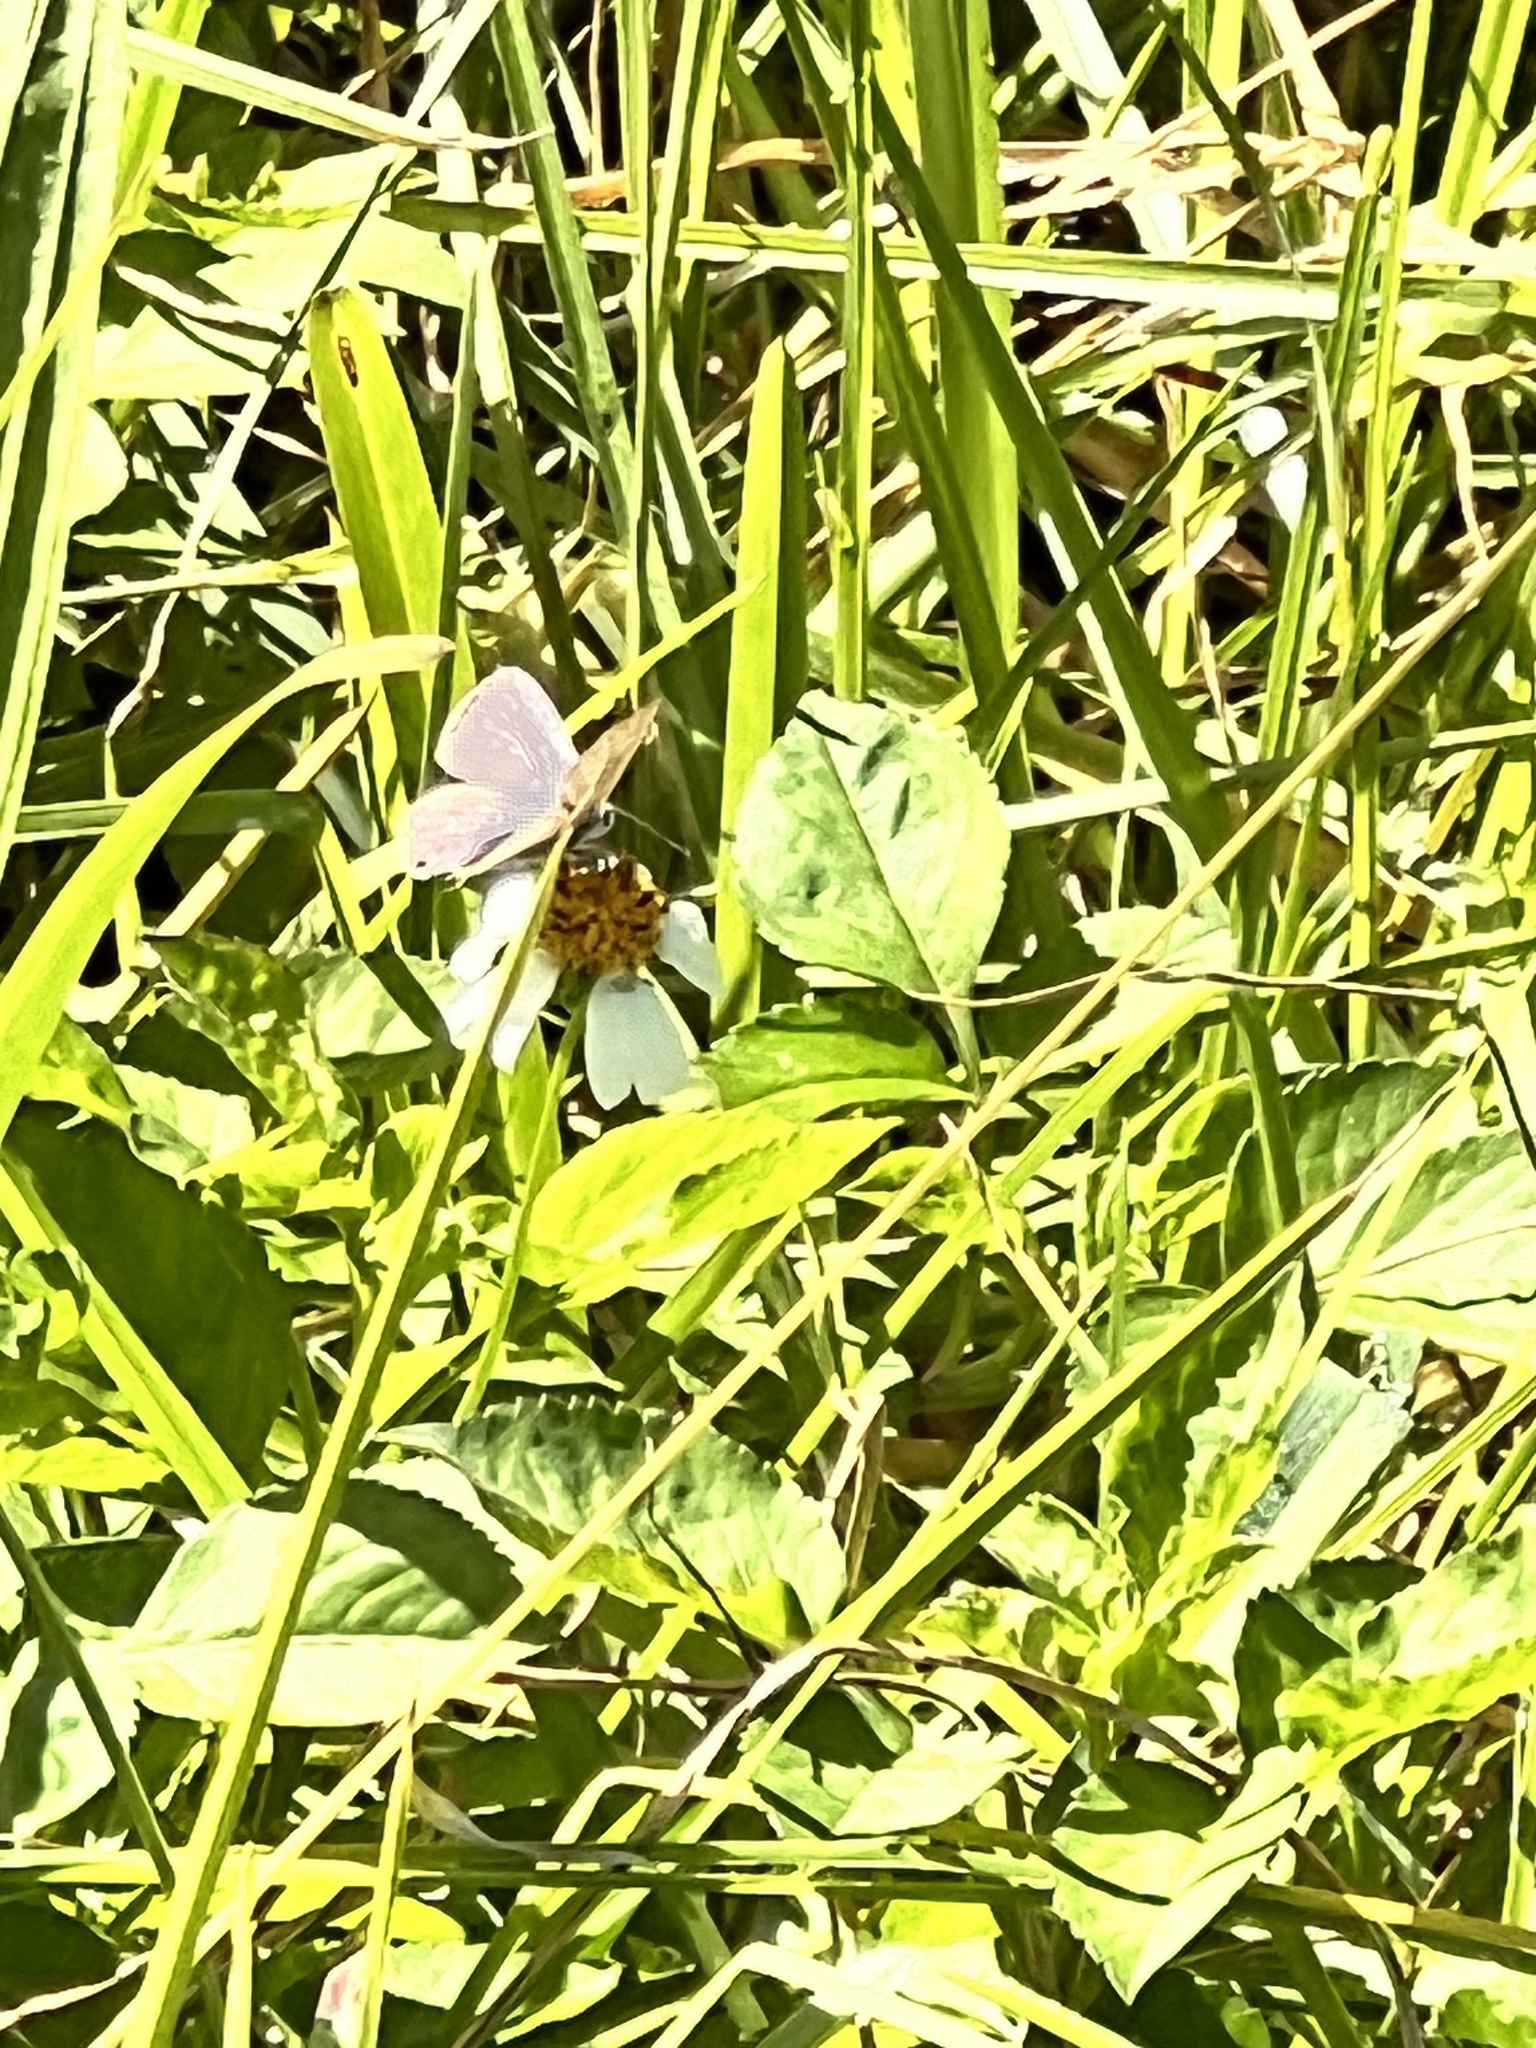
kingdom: Animalia
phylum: Arthropoda
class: Insecta
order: Lepidoptera
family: Lycaenidae
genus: Zizina
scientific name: Zizina otis
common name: Lesser grass blue
